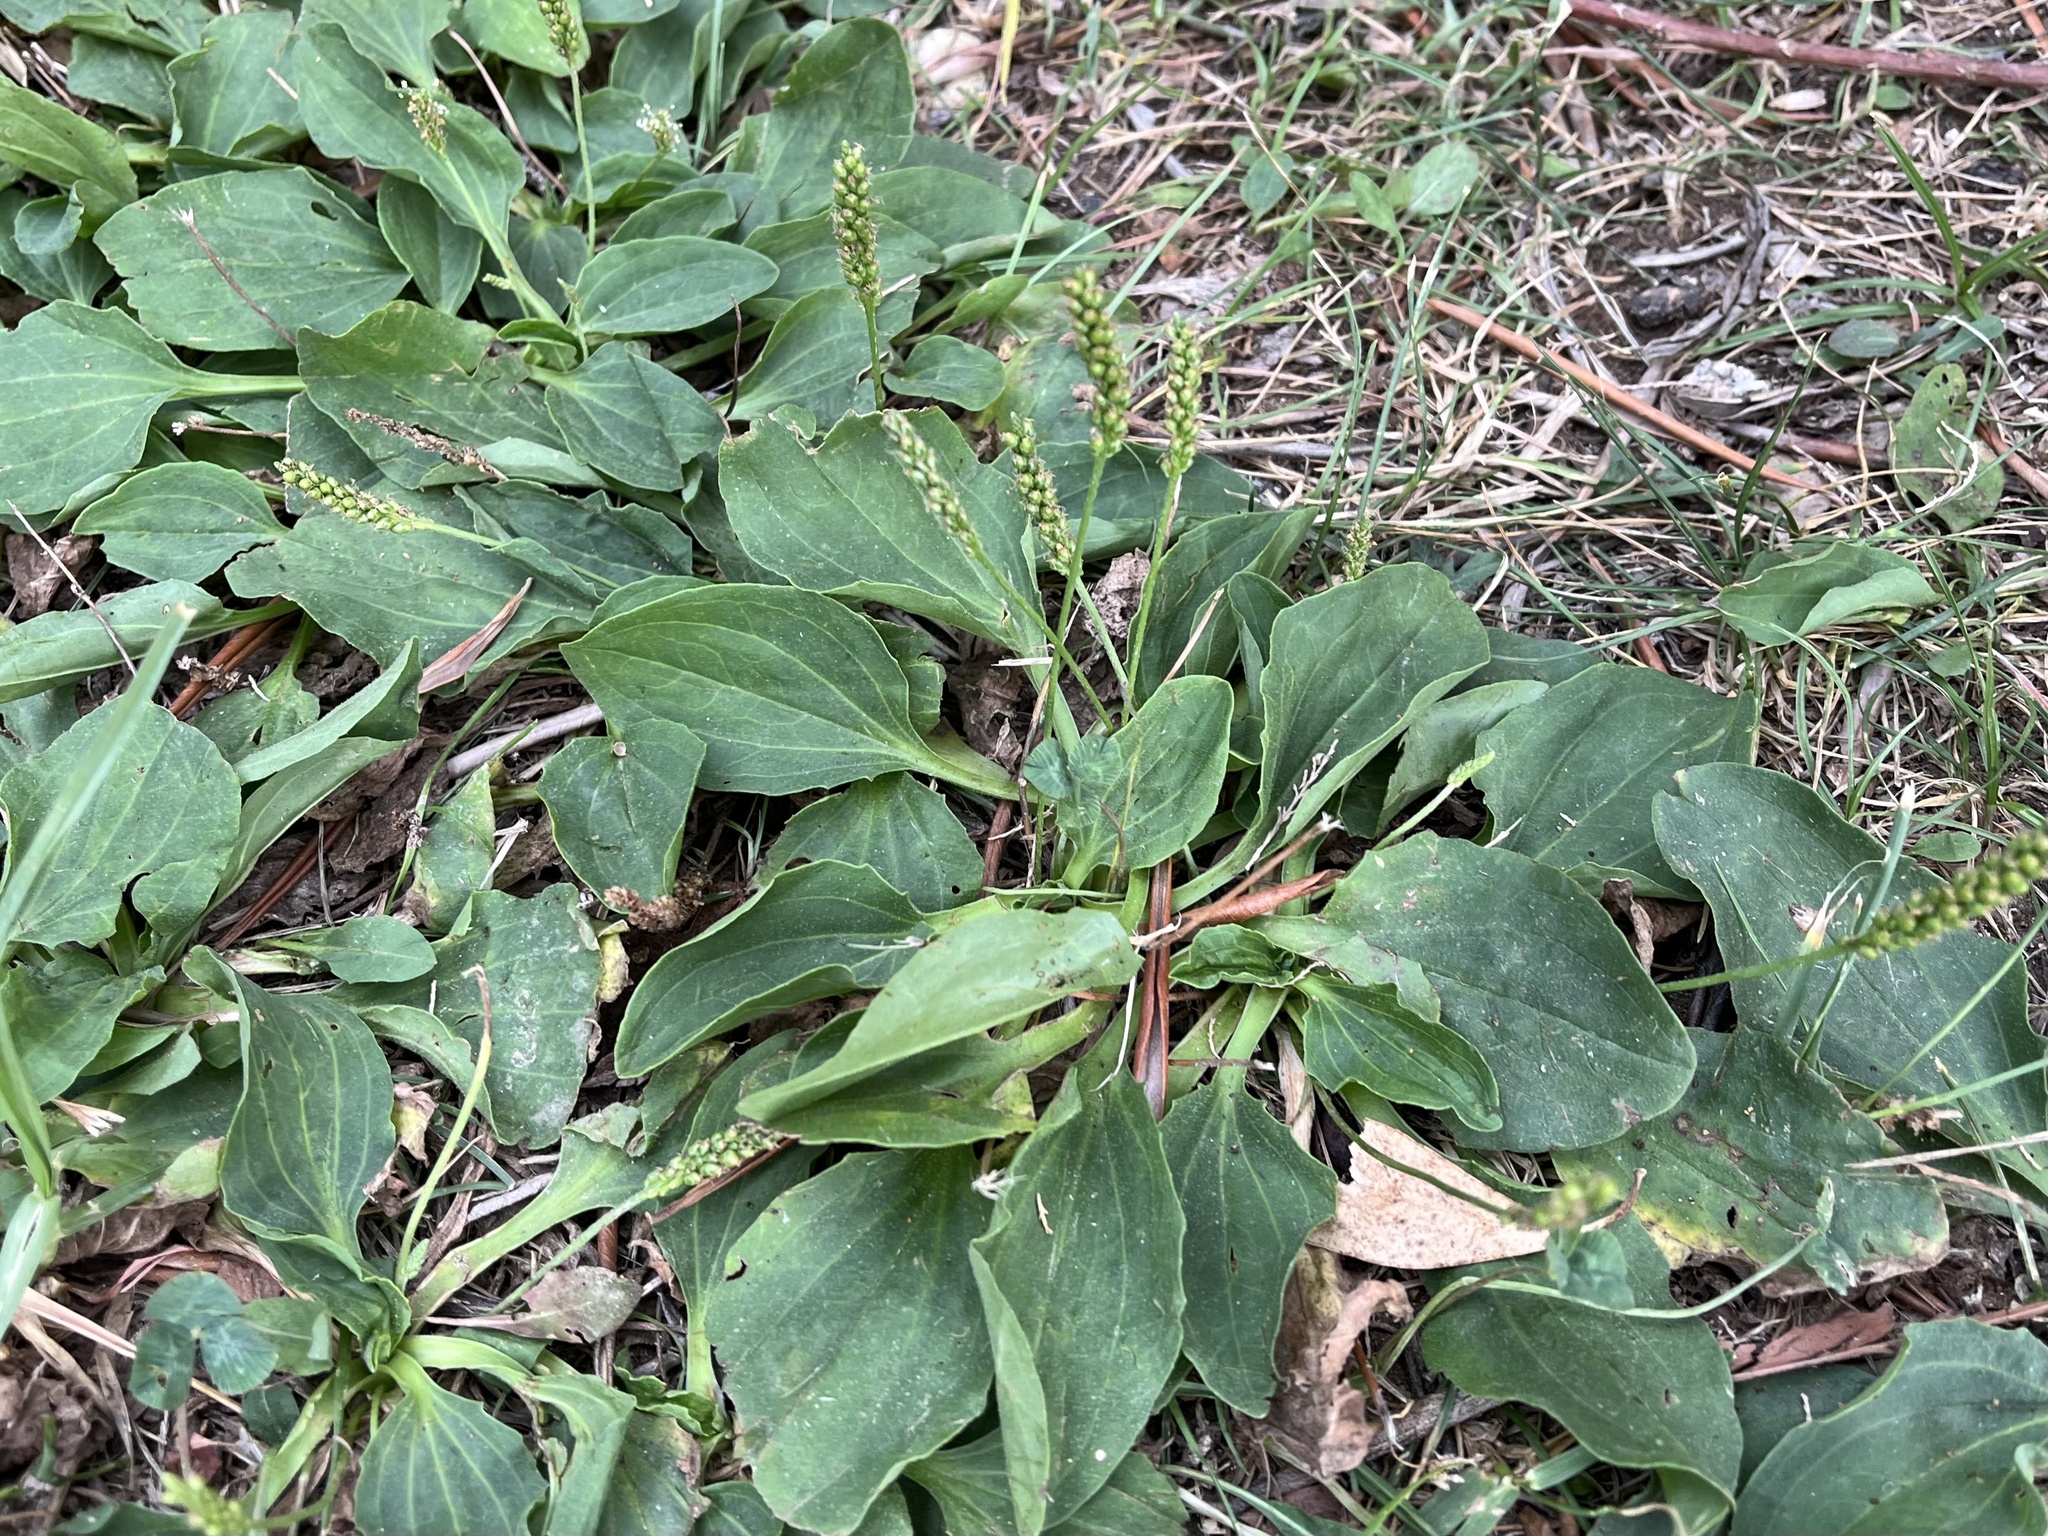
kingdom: Plantae
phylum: Tracheophyta
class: Magnoliopsida
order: Lamiales
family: Plantaginaceae
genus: Plantago
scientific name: Plantago major
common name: Common plantain
